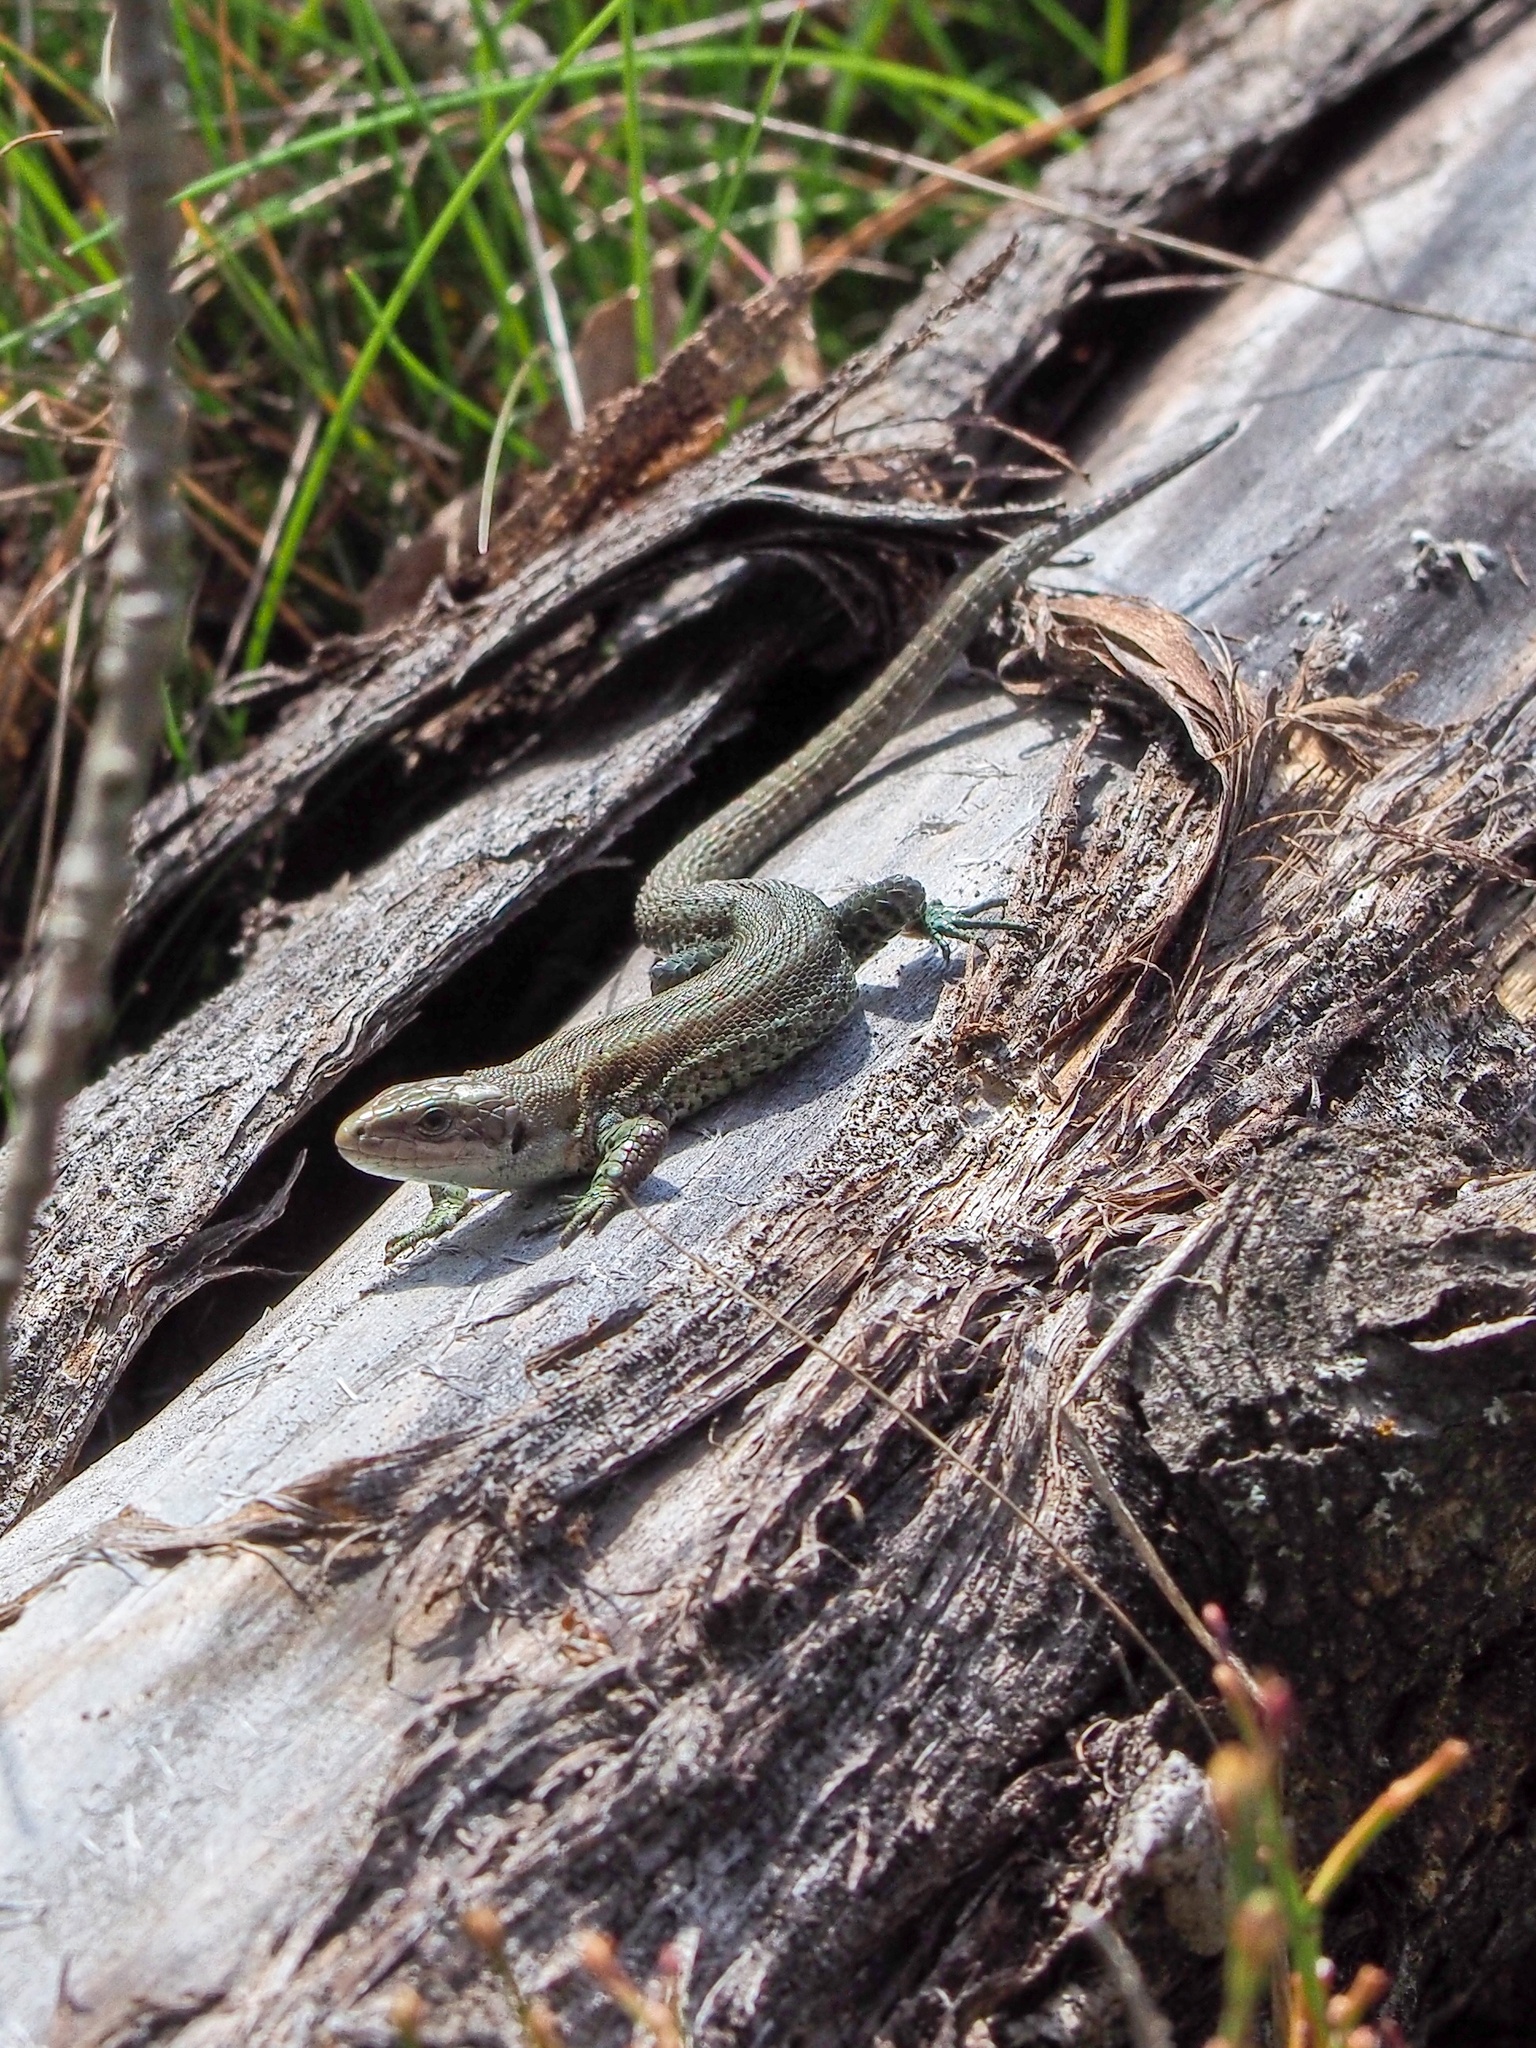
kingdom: Animalia
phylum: Chordata
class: Squamata
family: Lacertidae
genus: Zootoca
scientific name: Zootoca vivipara
